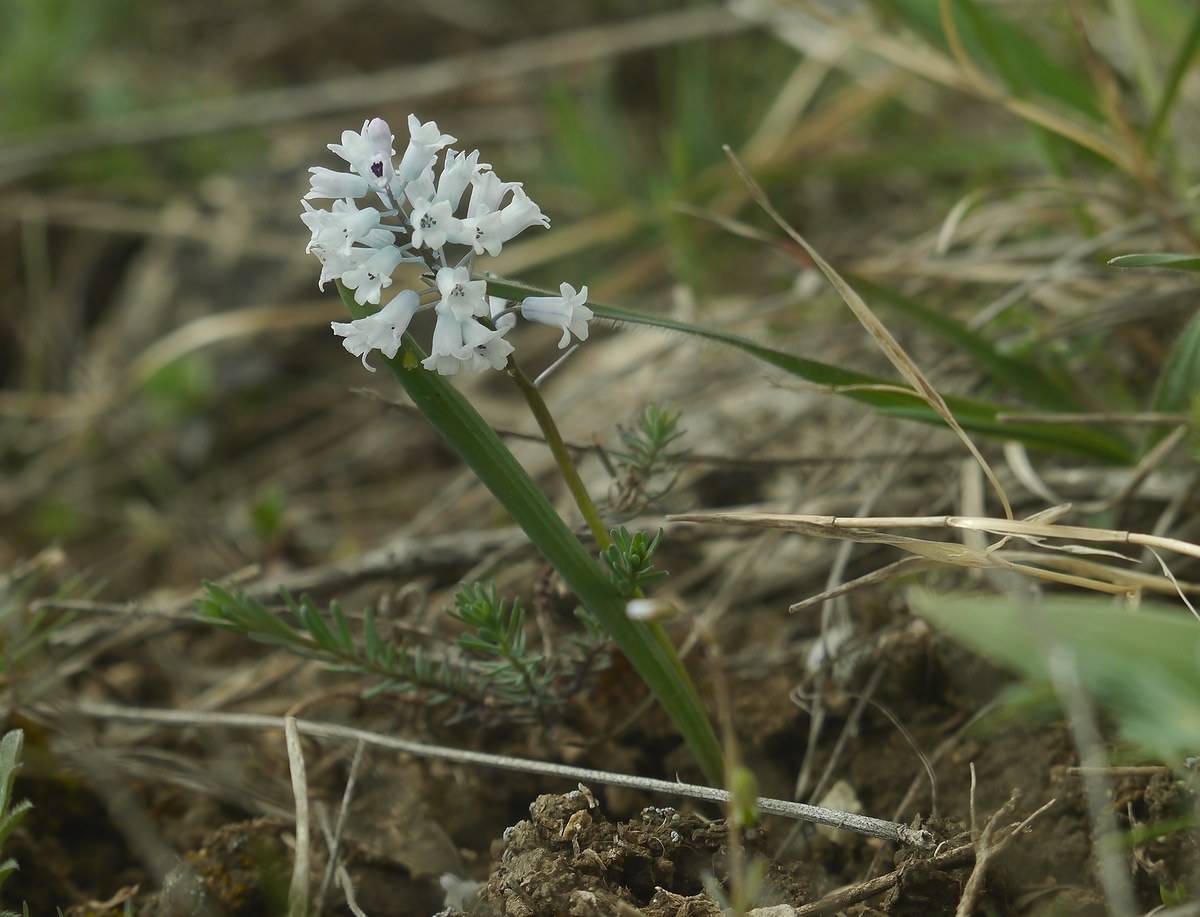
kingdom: Plantae
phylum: Tracheophyta
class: Liliopsida
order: Asparagales
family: Asparagaceae
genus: Hyacinthella
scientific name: Hyacinthella leucophaea
